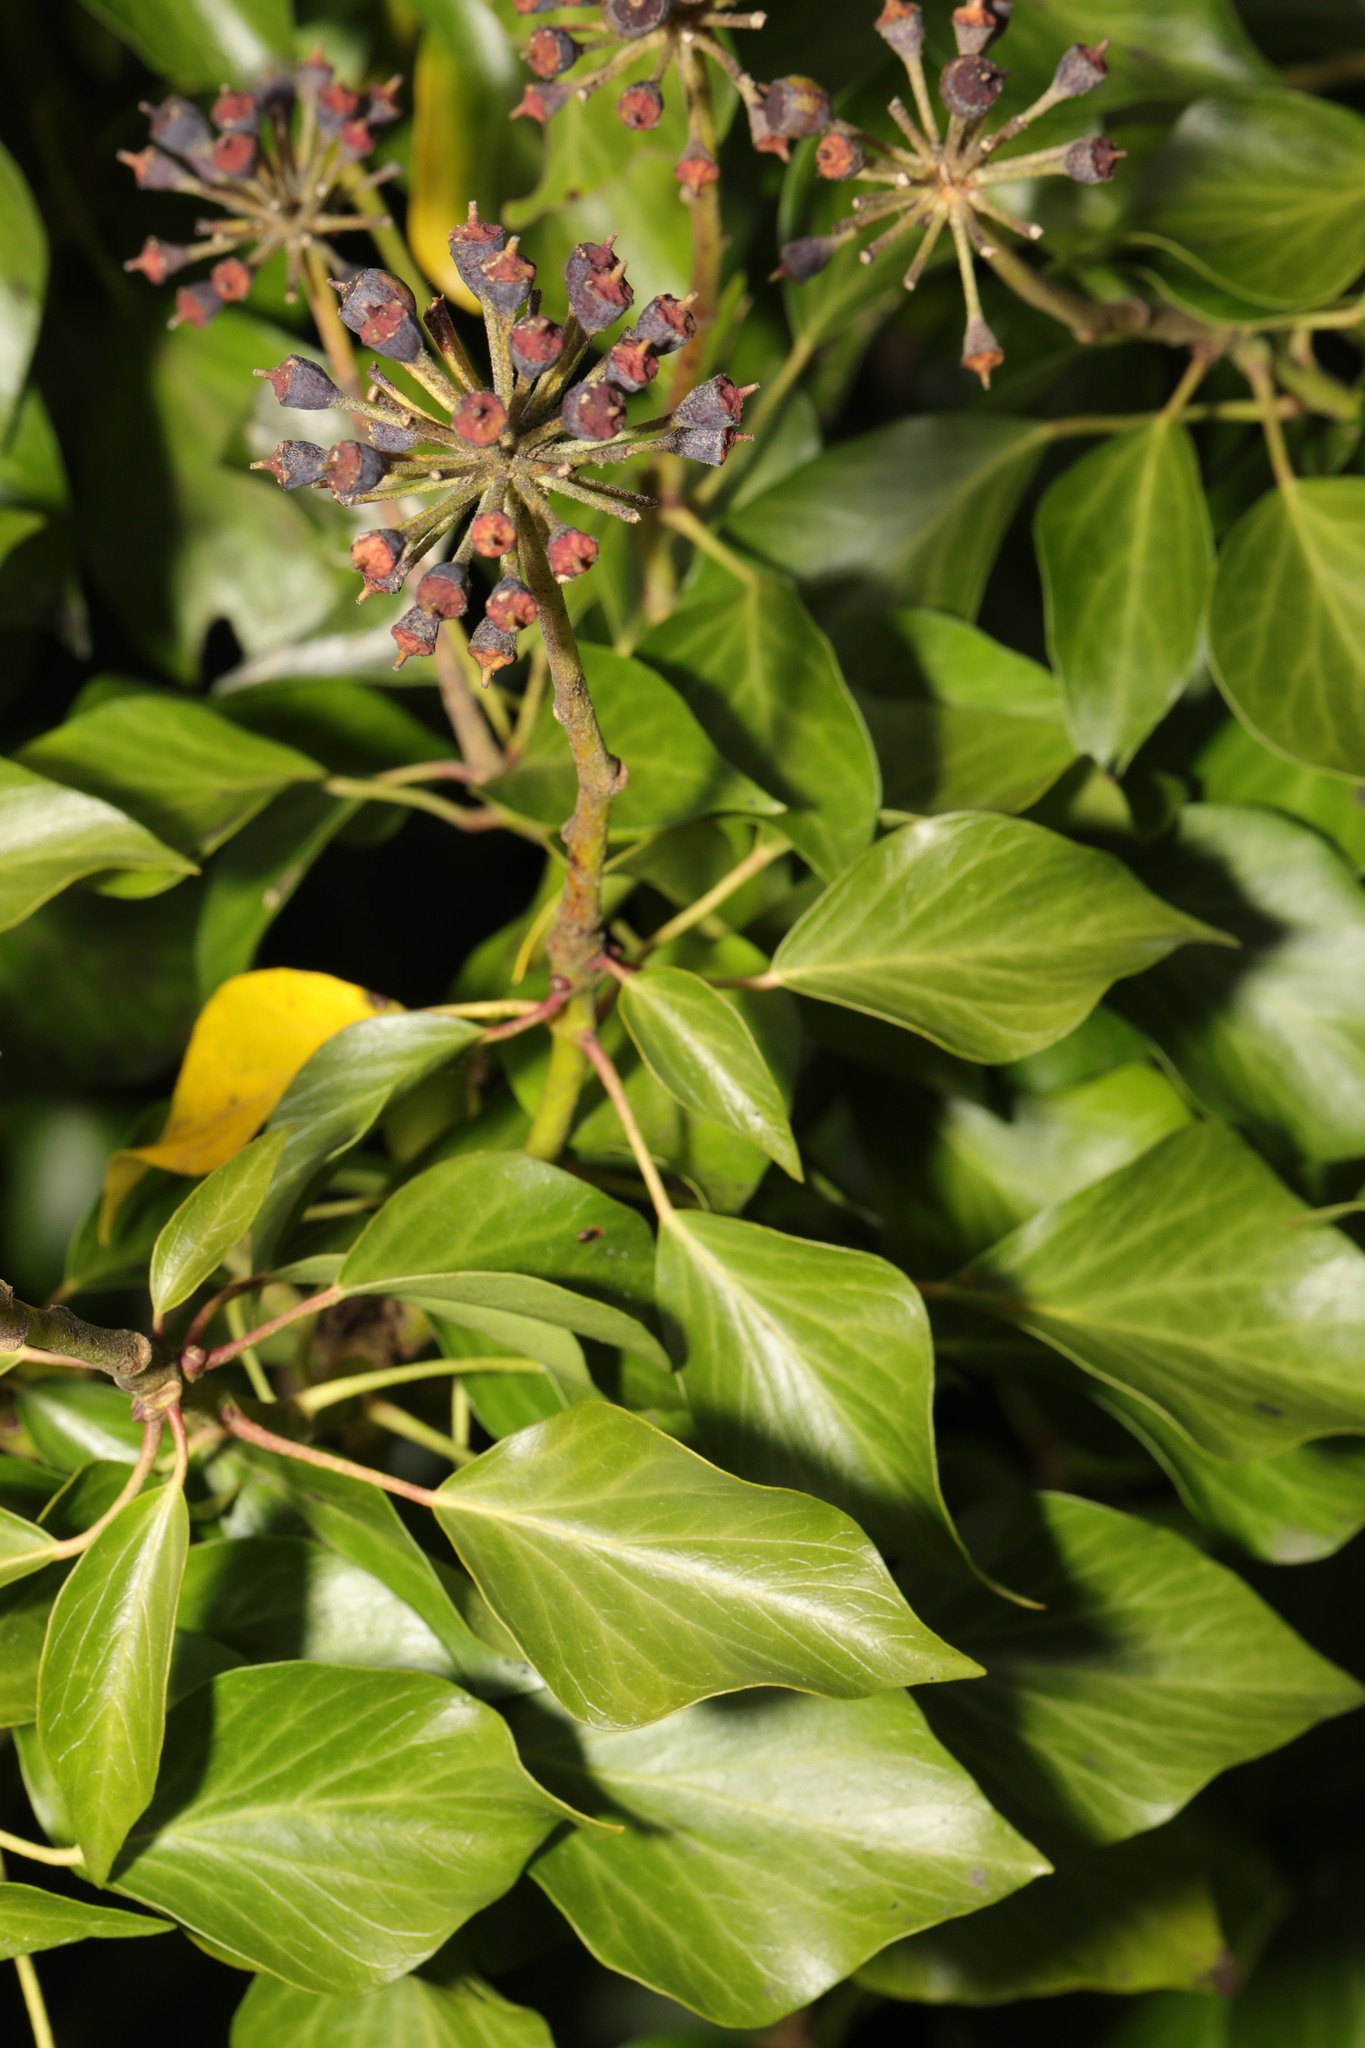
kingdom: Plantae
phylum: Tracheophyta
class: Magnoliopsida
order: Apiales
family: Araliaceae
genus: Hedera
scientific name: Hedera helix
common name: Ivy
